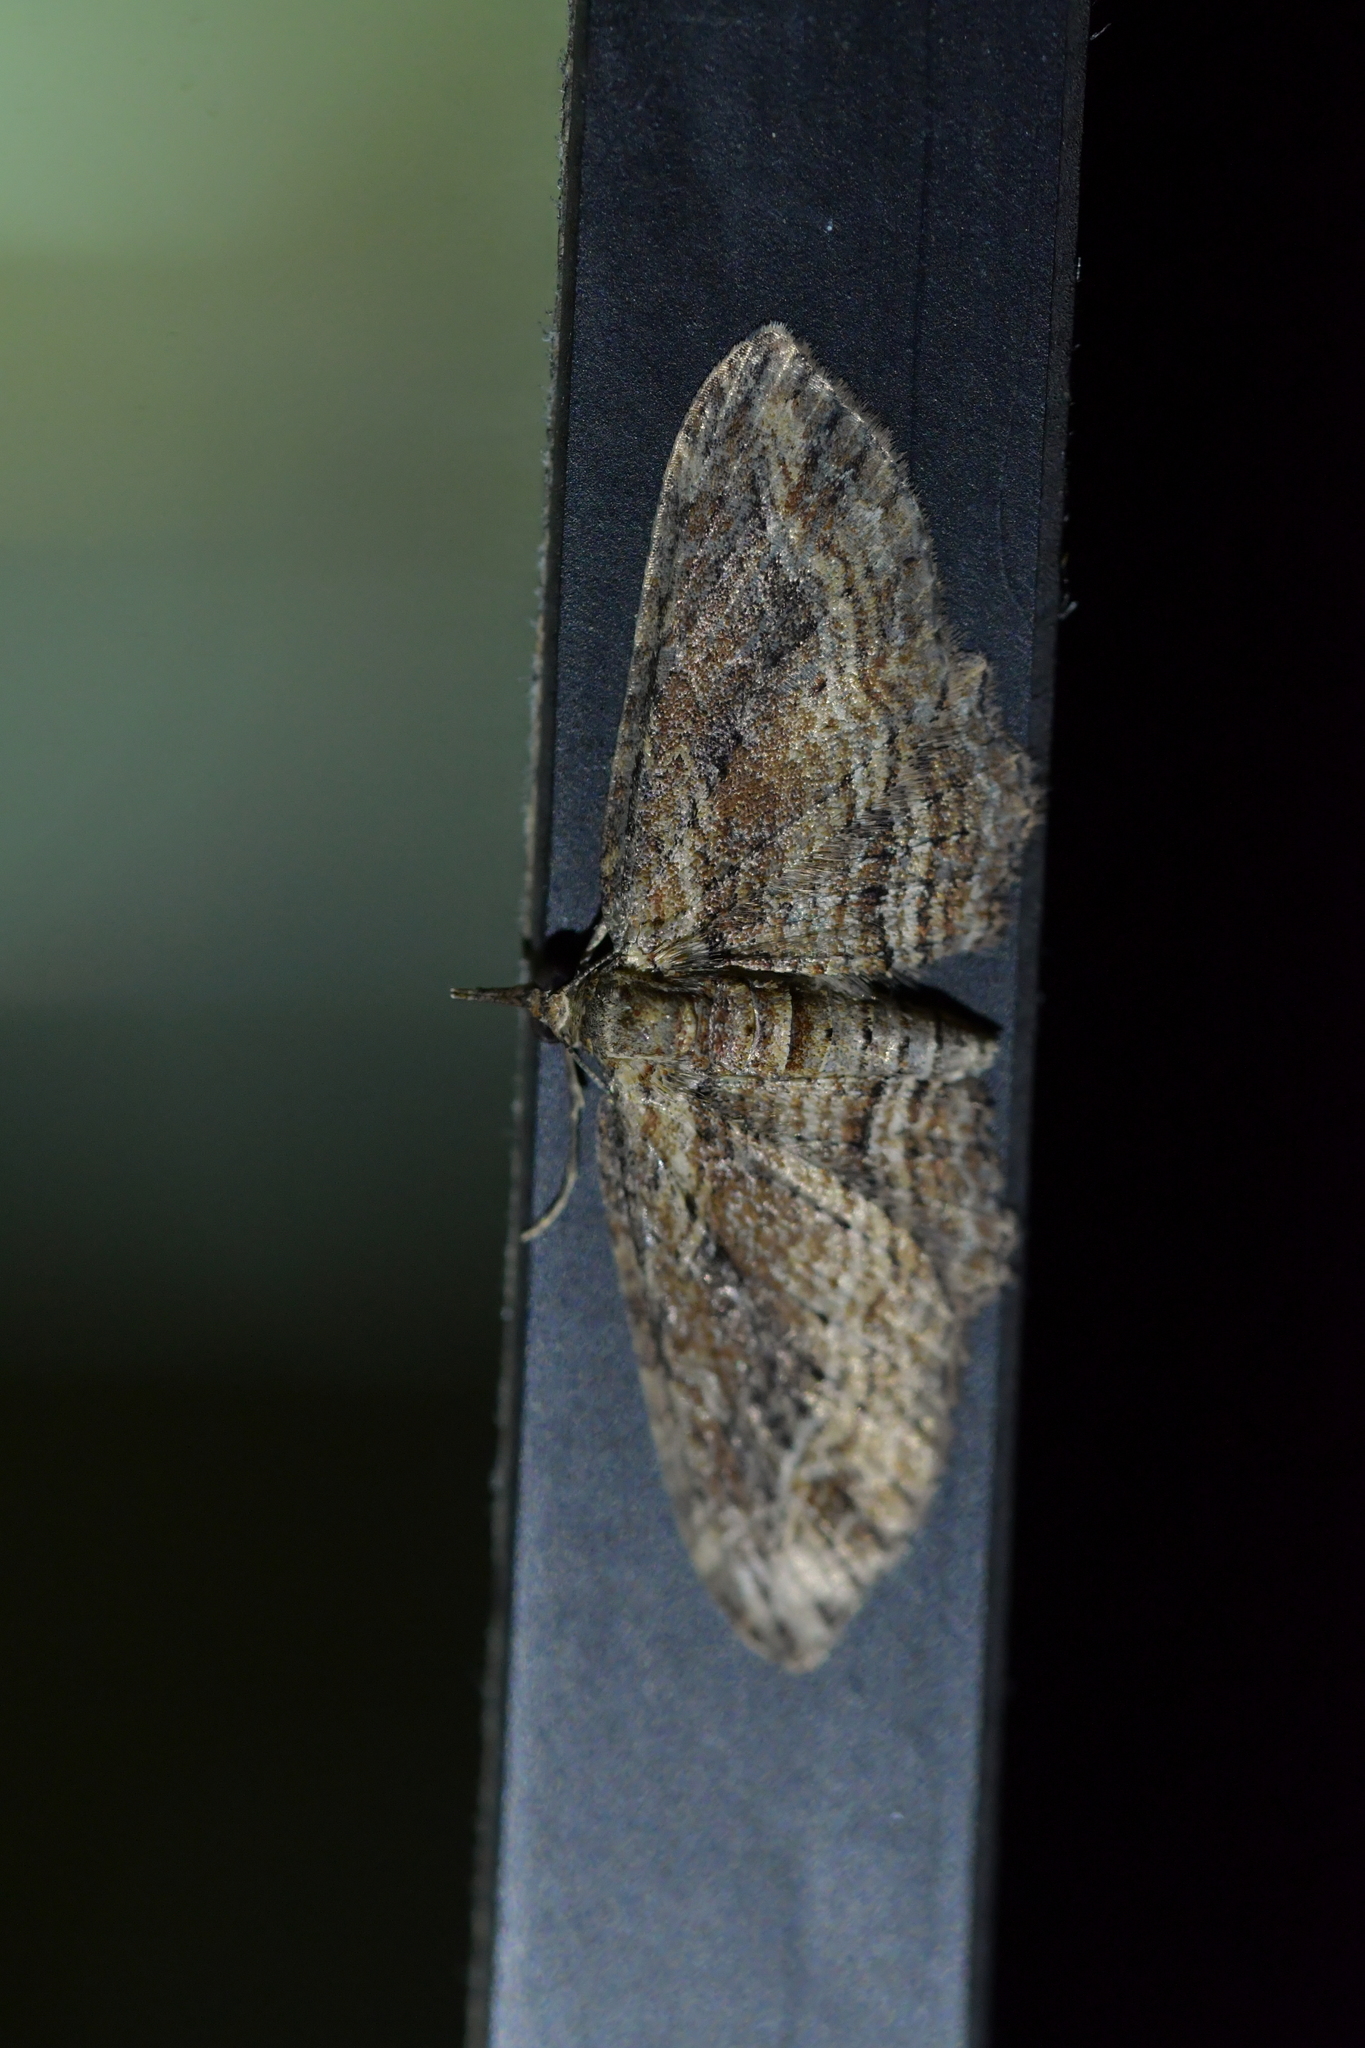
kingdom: Animalia
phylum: Arthropoda
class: Insecta
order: Lepidoptera
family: Geometridae
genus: Chloroclystis
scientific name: Chloroclystis filata
